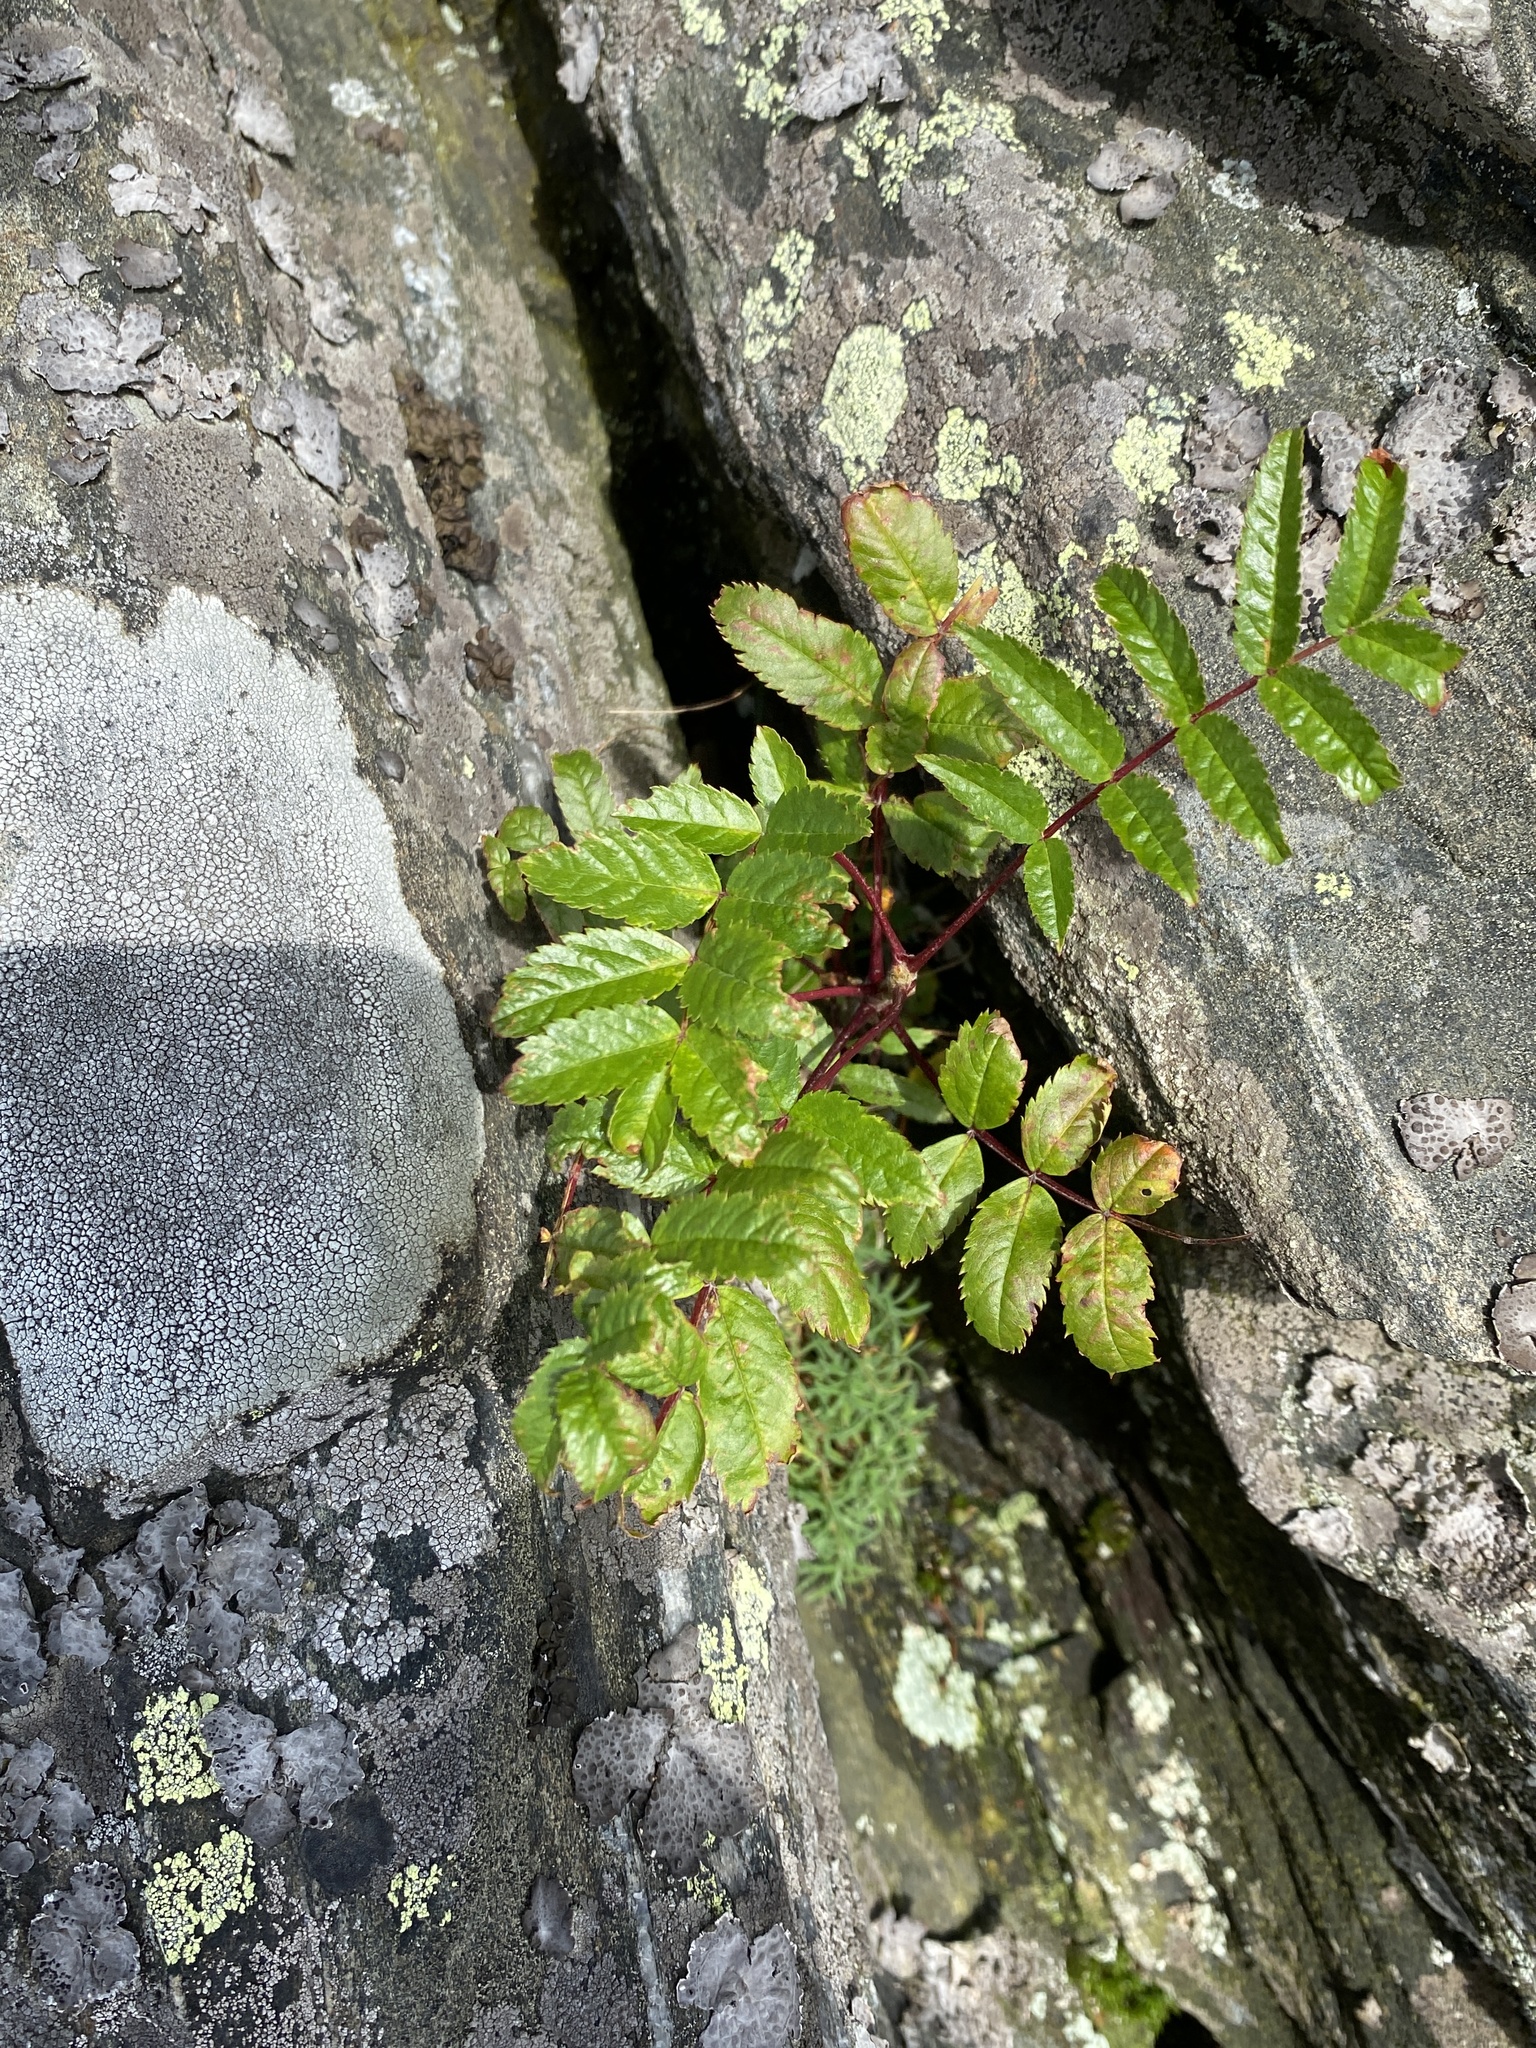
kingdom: Plantae
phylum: Tracheophyta
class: Magnoliopsida
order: Rosales
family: Rosaceae
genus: Sorbus
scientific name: Sorbus americana
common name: American mountain-ash
